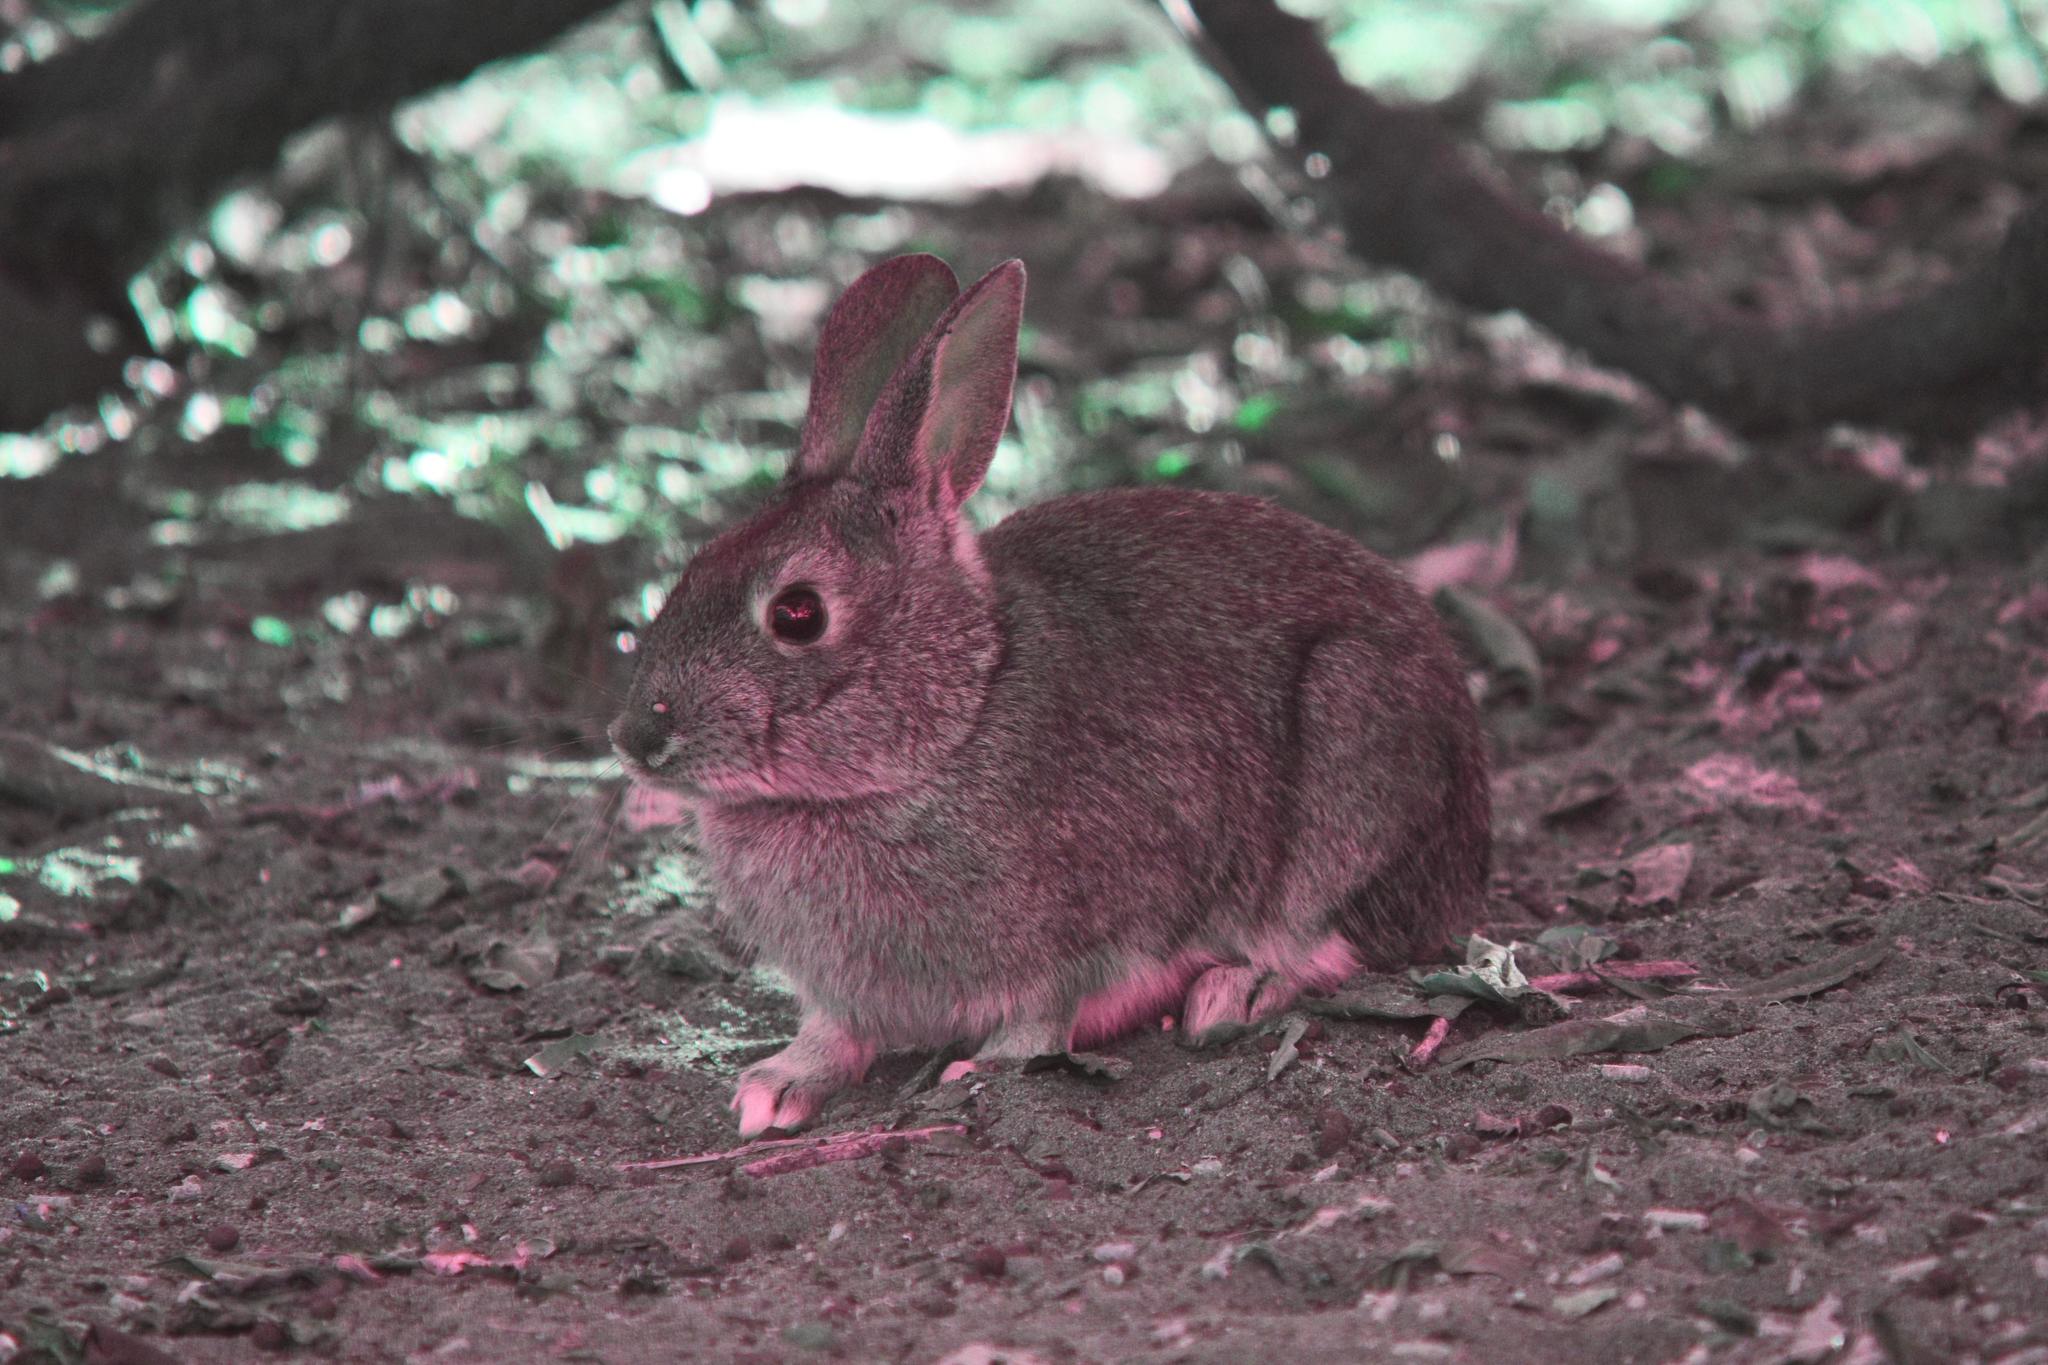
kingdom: Animalia
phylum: Chordata
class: Mammalia
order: Lagomorpha
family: Leporidae
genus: Sylvilagus
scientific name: Sylvilagus bachmani
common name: Brush rabbit
